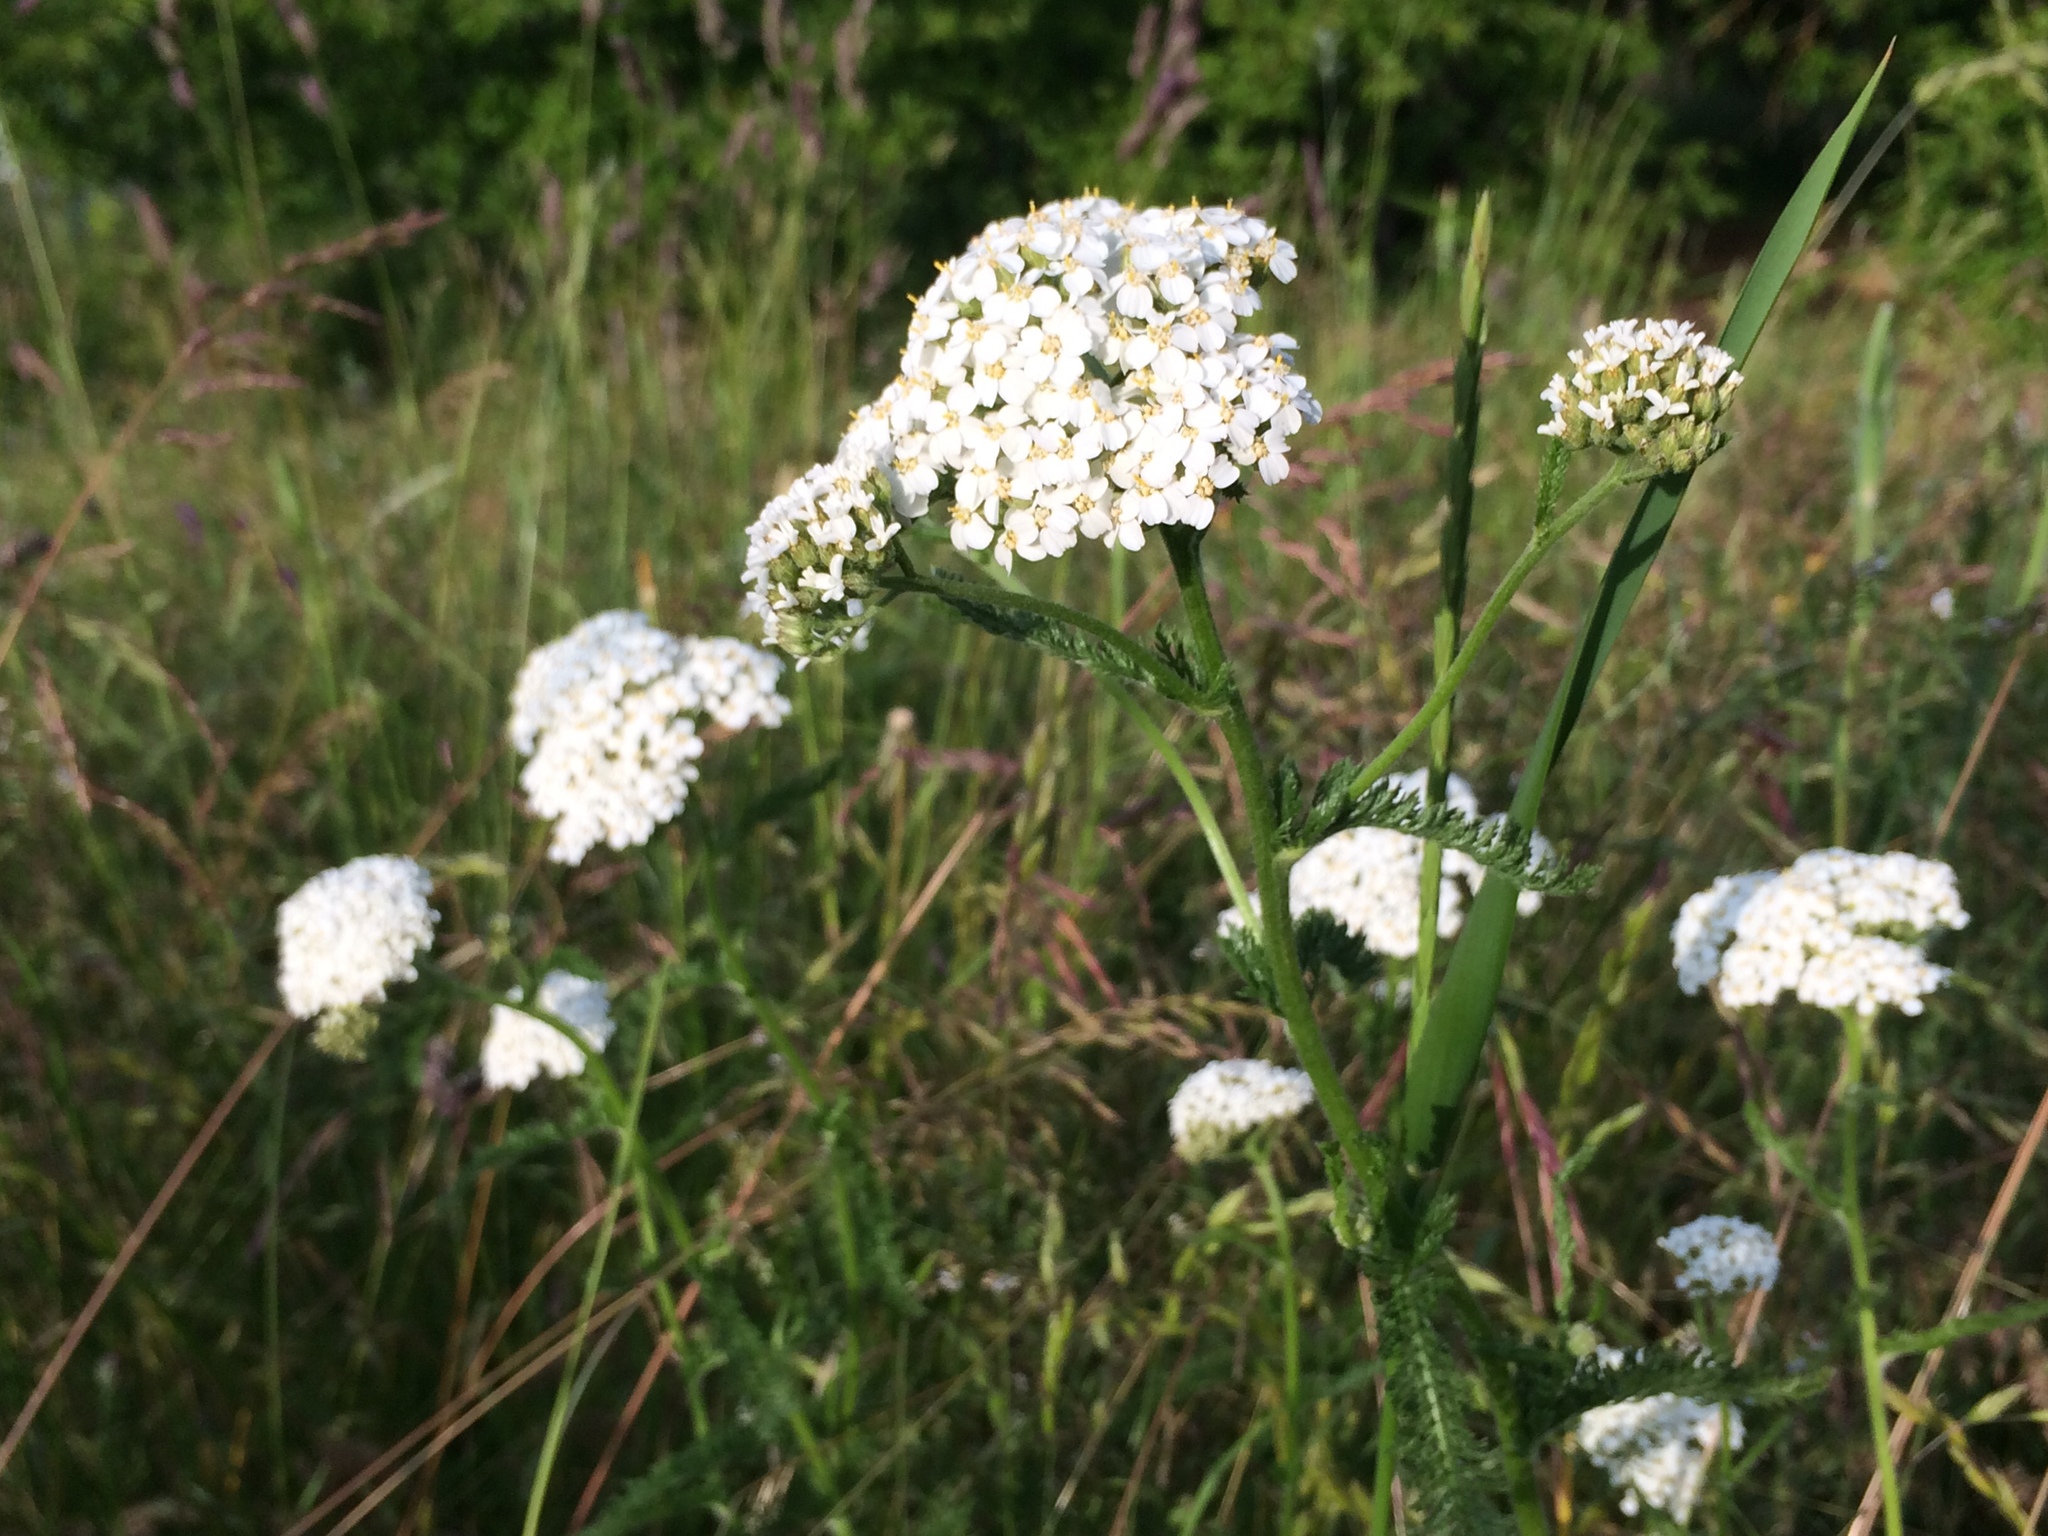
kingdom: Plantae
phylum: Tracheophyta
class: Magnoliopsida
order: Asterales
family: Asteraceae
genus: Achillea
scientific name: Achillea millefolium
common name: Yarrow
